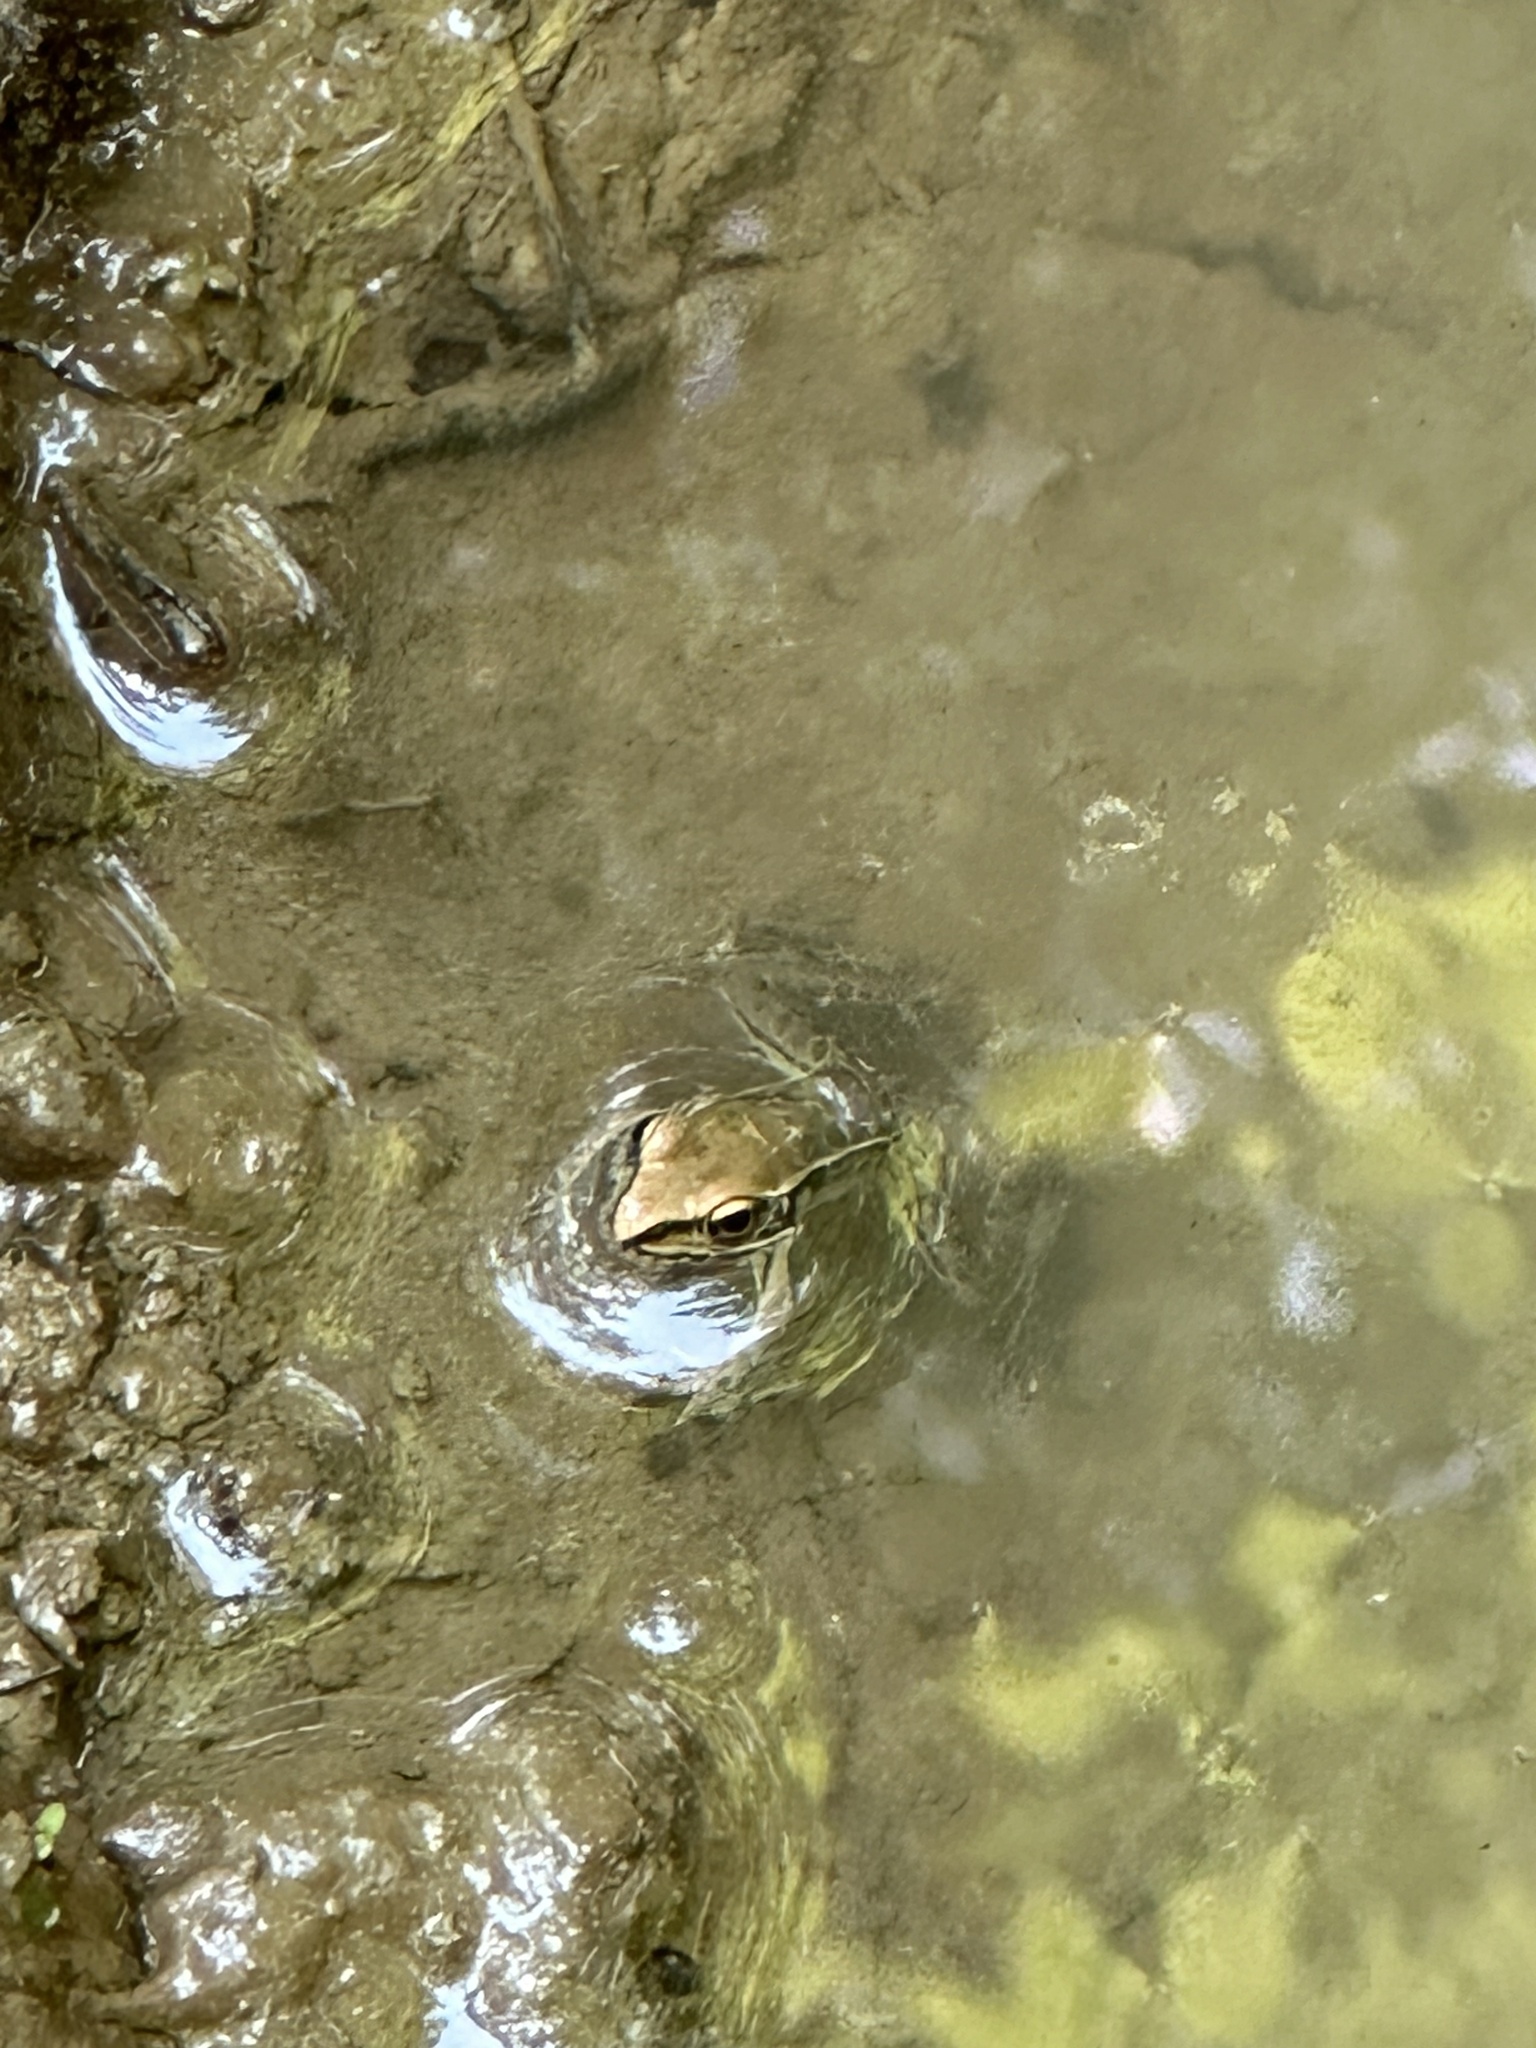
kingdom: Animalia
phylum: Chordata
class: Amphibia
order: Anura
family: Ranidae
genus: Lithobates
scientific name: Lithobates sphenocephalus
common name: Southern leopard frog
